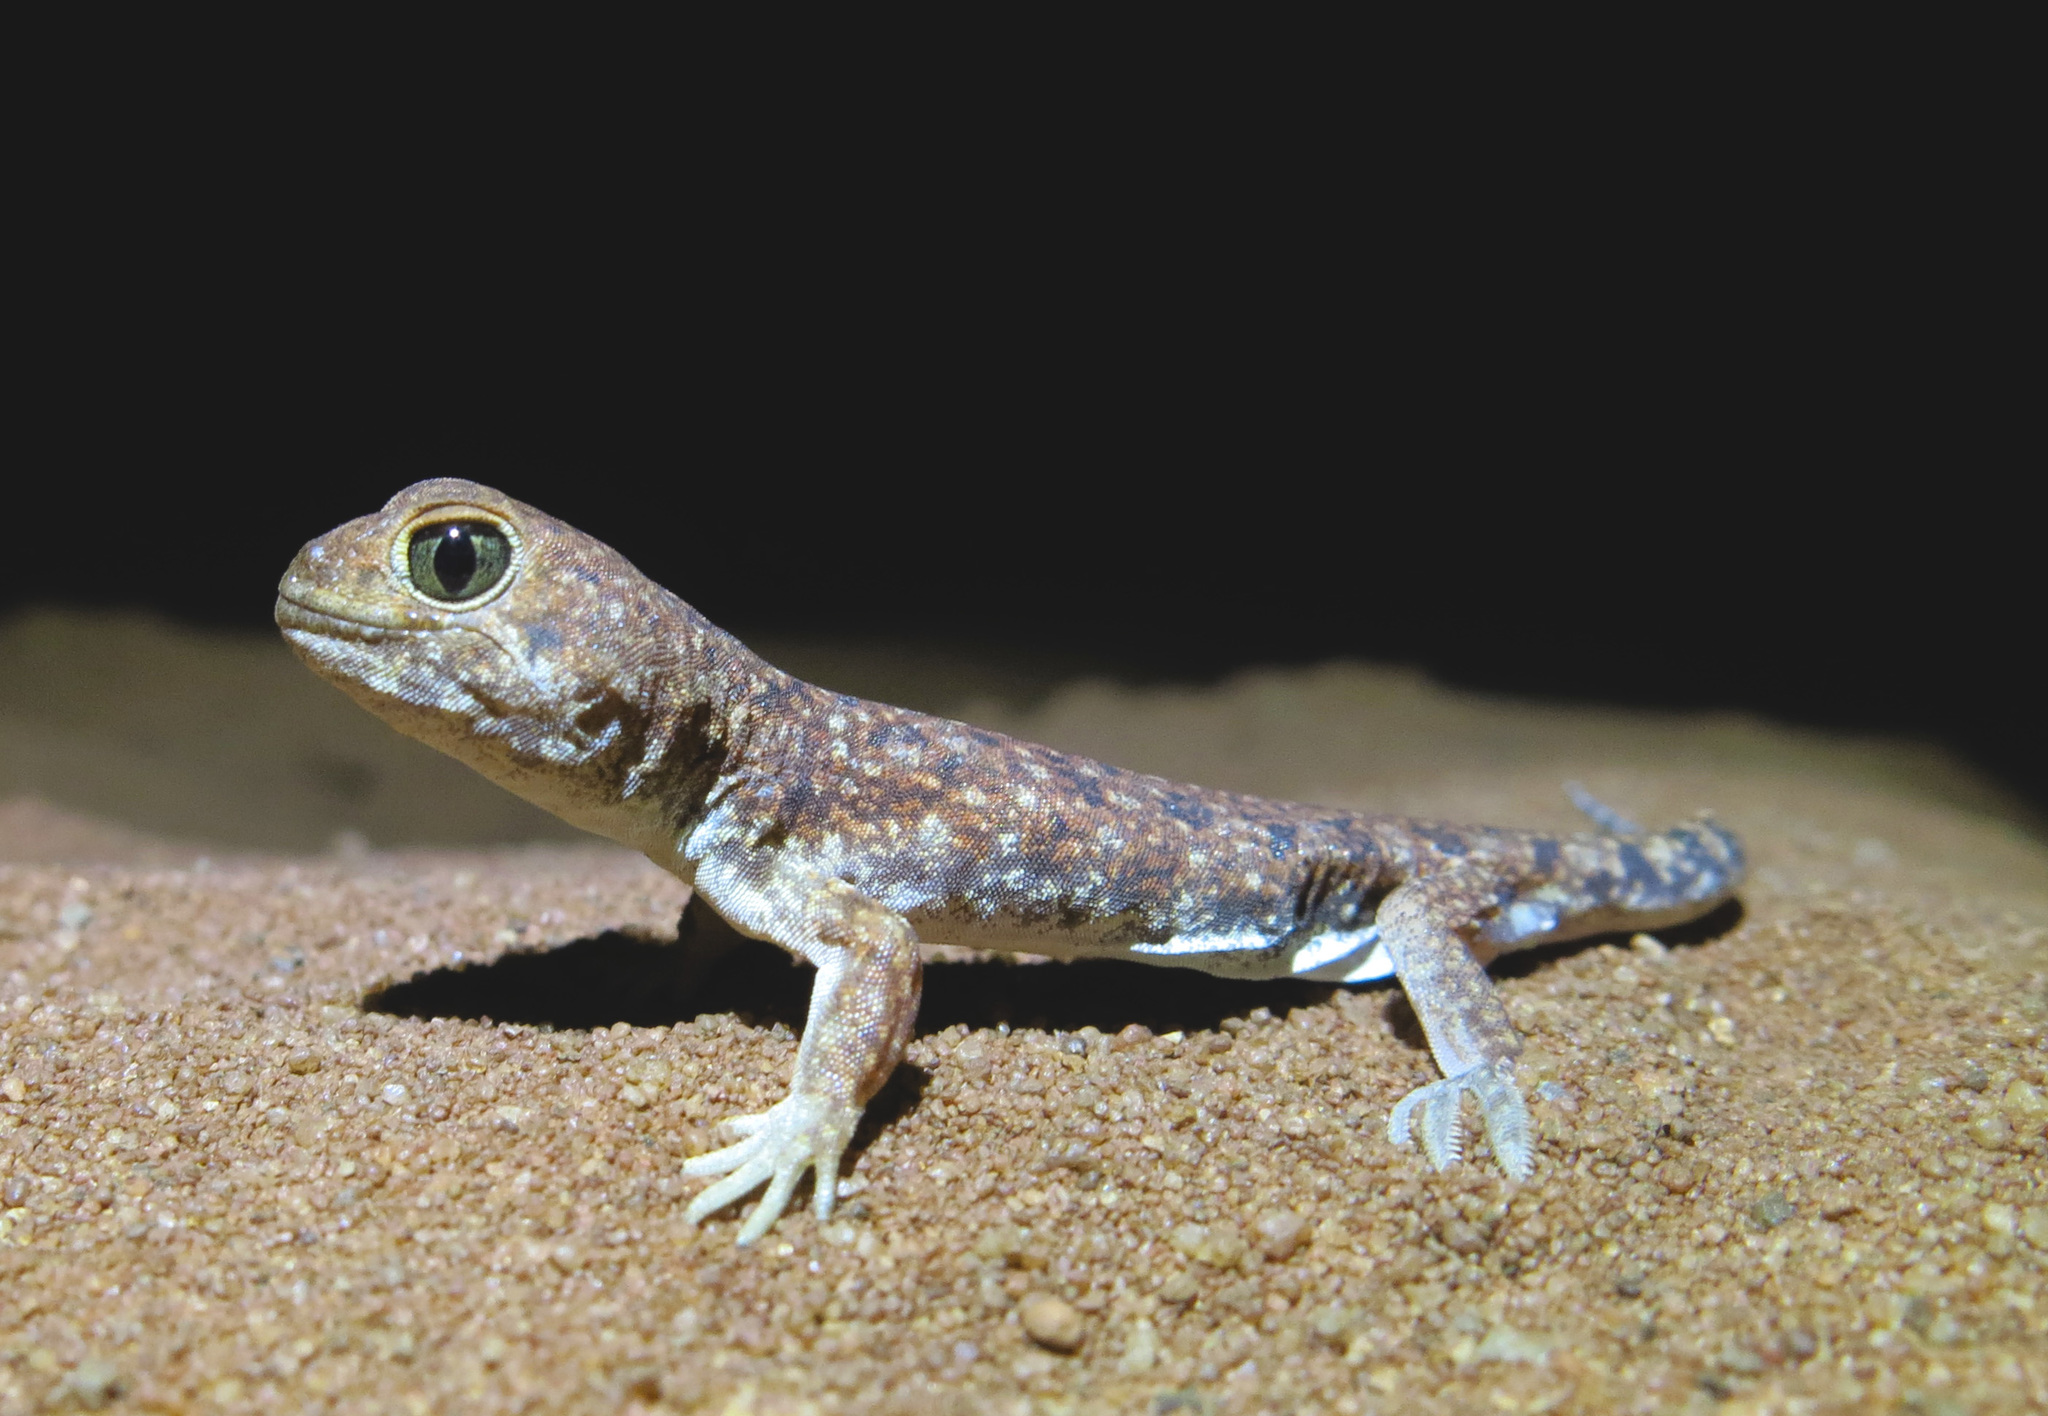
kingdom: Animalia
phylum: Chordata
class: Squamata
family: Gekkonidae
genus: Ptenopus
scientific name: Ptenopus garrulus
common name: Whistling gecko
